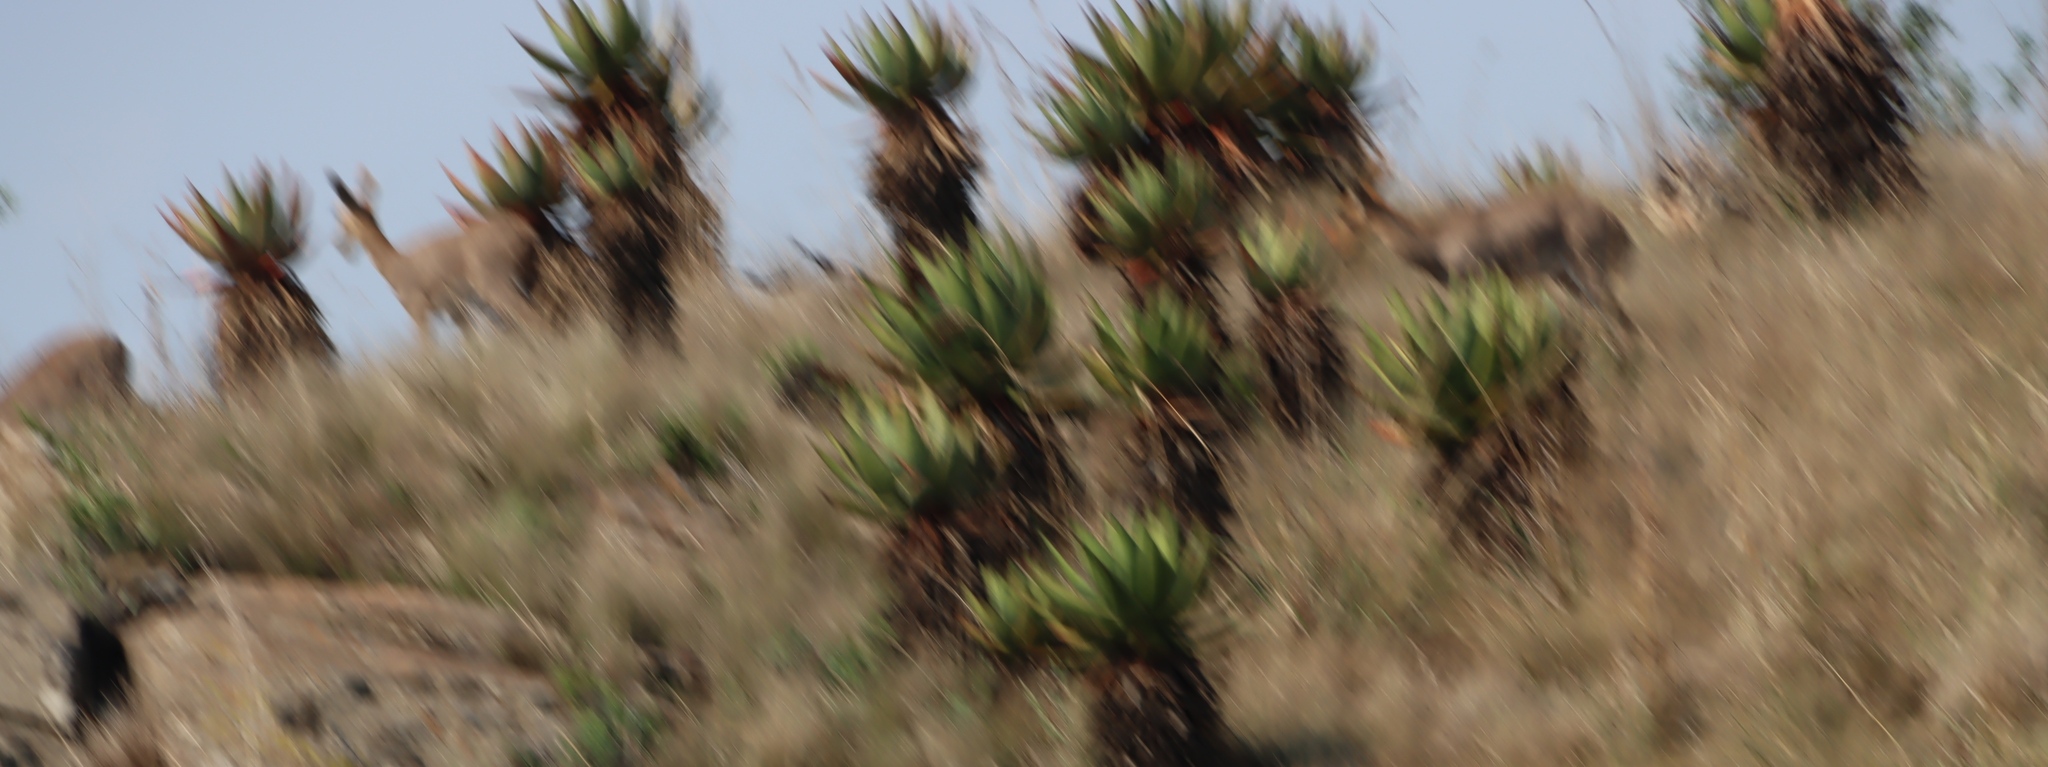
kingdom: Animalia
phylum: Chordata
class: Mammalia
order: Artiodactyla
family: Bovidae
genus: Redunca
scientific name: Redunca fulvorufula
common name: Mountain reedbuck
